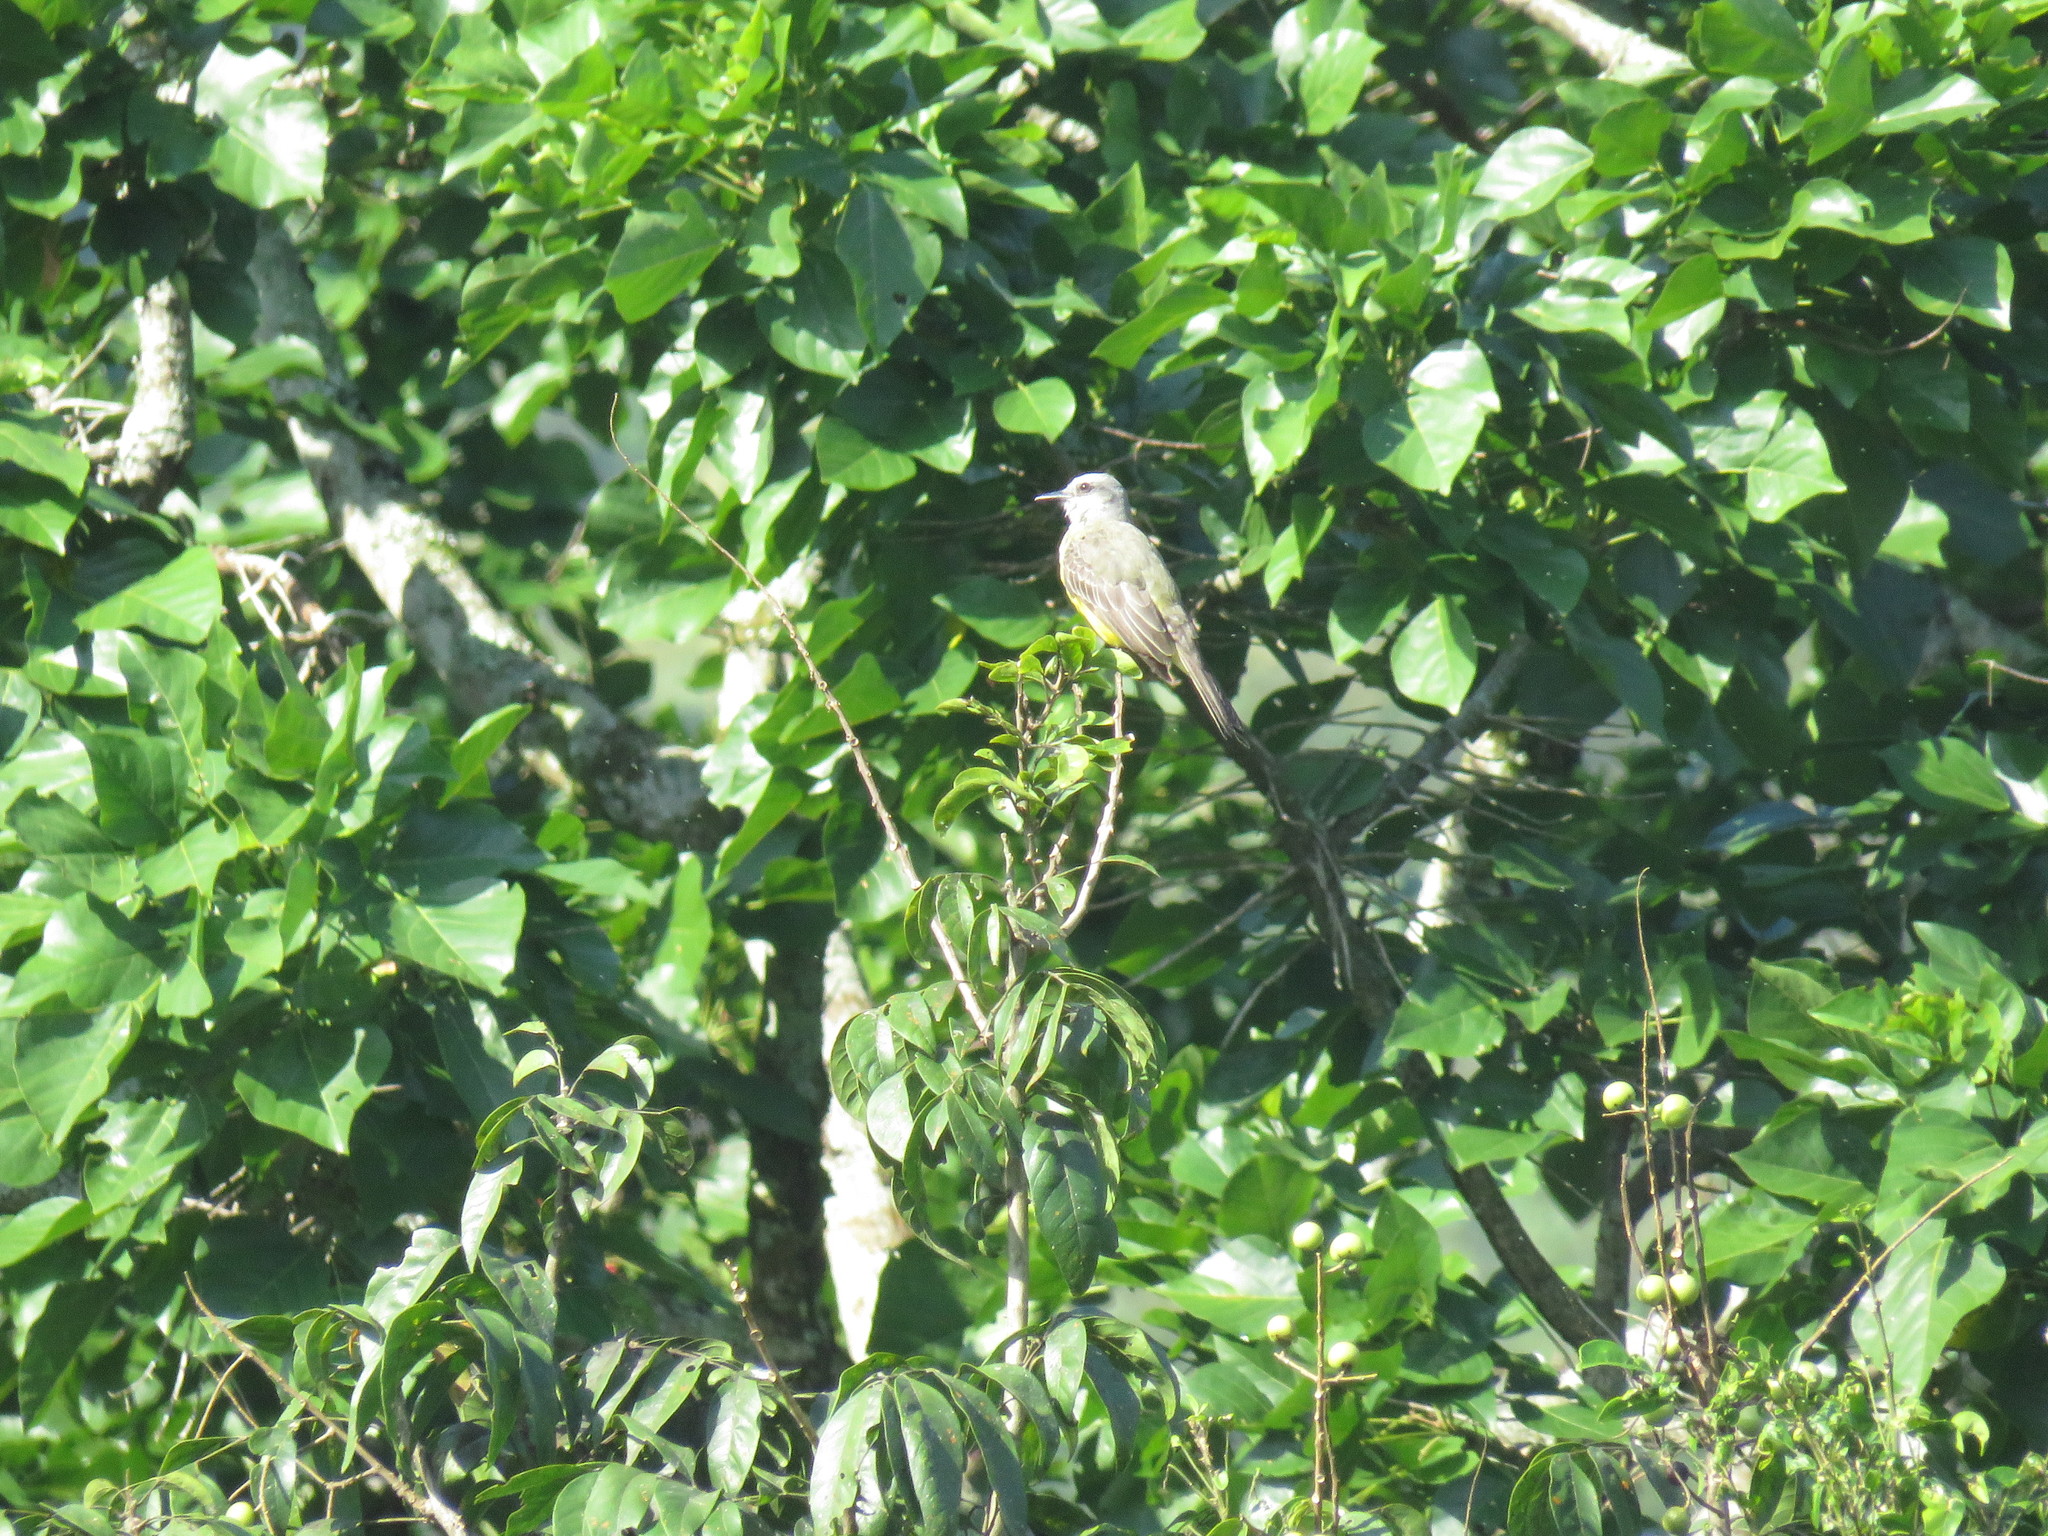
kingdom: Animalia
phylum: Chordata
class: Aves
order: Passeriformes
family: Tyrannidae
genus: Tyrannus
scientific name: Tyrannus melancholicus
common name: Tropical kingbird
